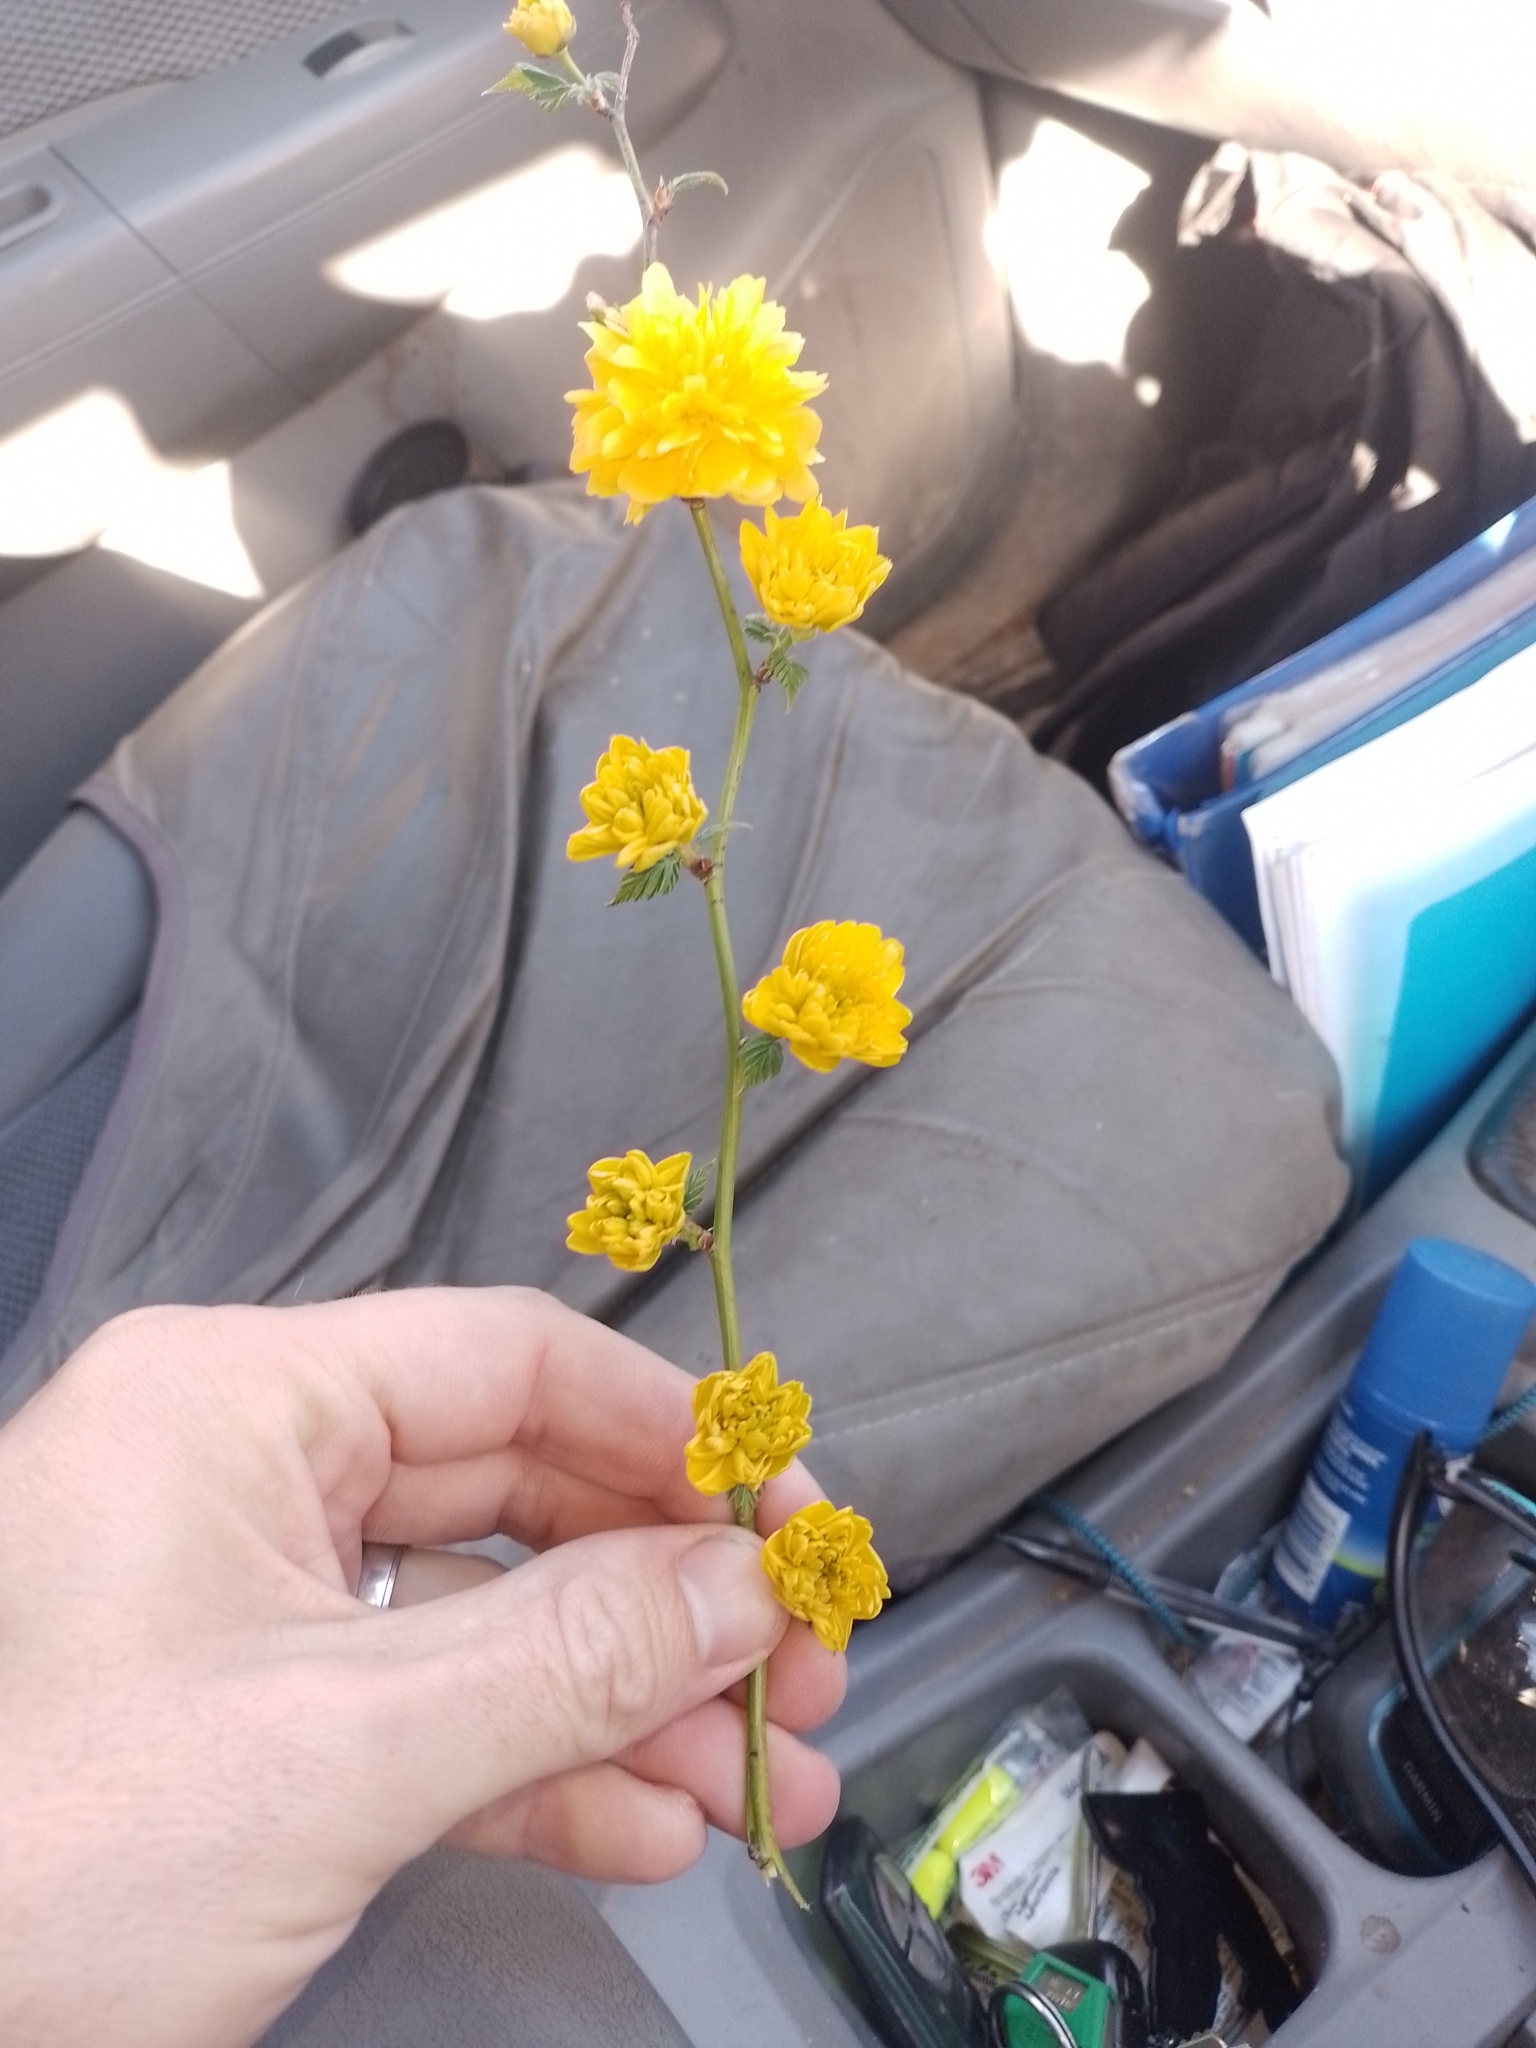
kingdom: Plantae
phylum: Tracheophyta
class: Magnoliopsida
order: Rosales
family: Rosaceae
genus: Kerria
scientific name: Kerria japonica
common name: Japanese kerria
